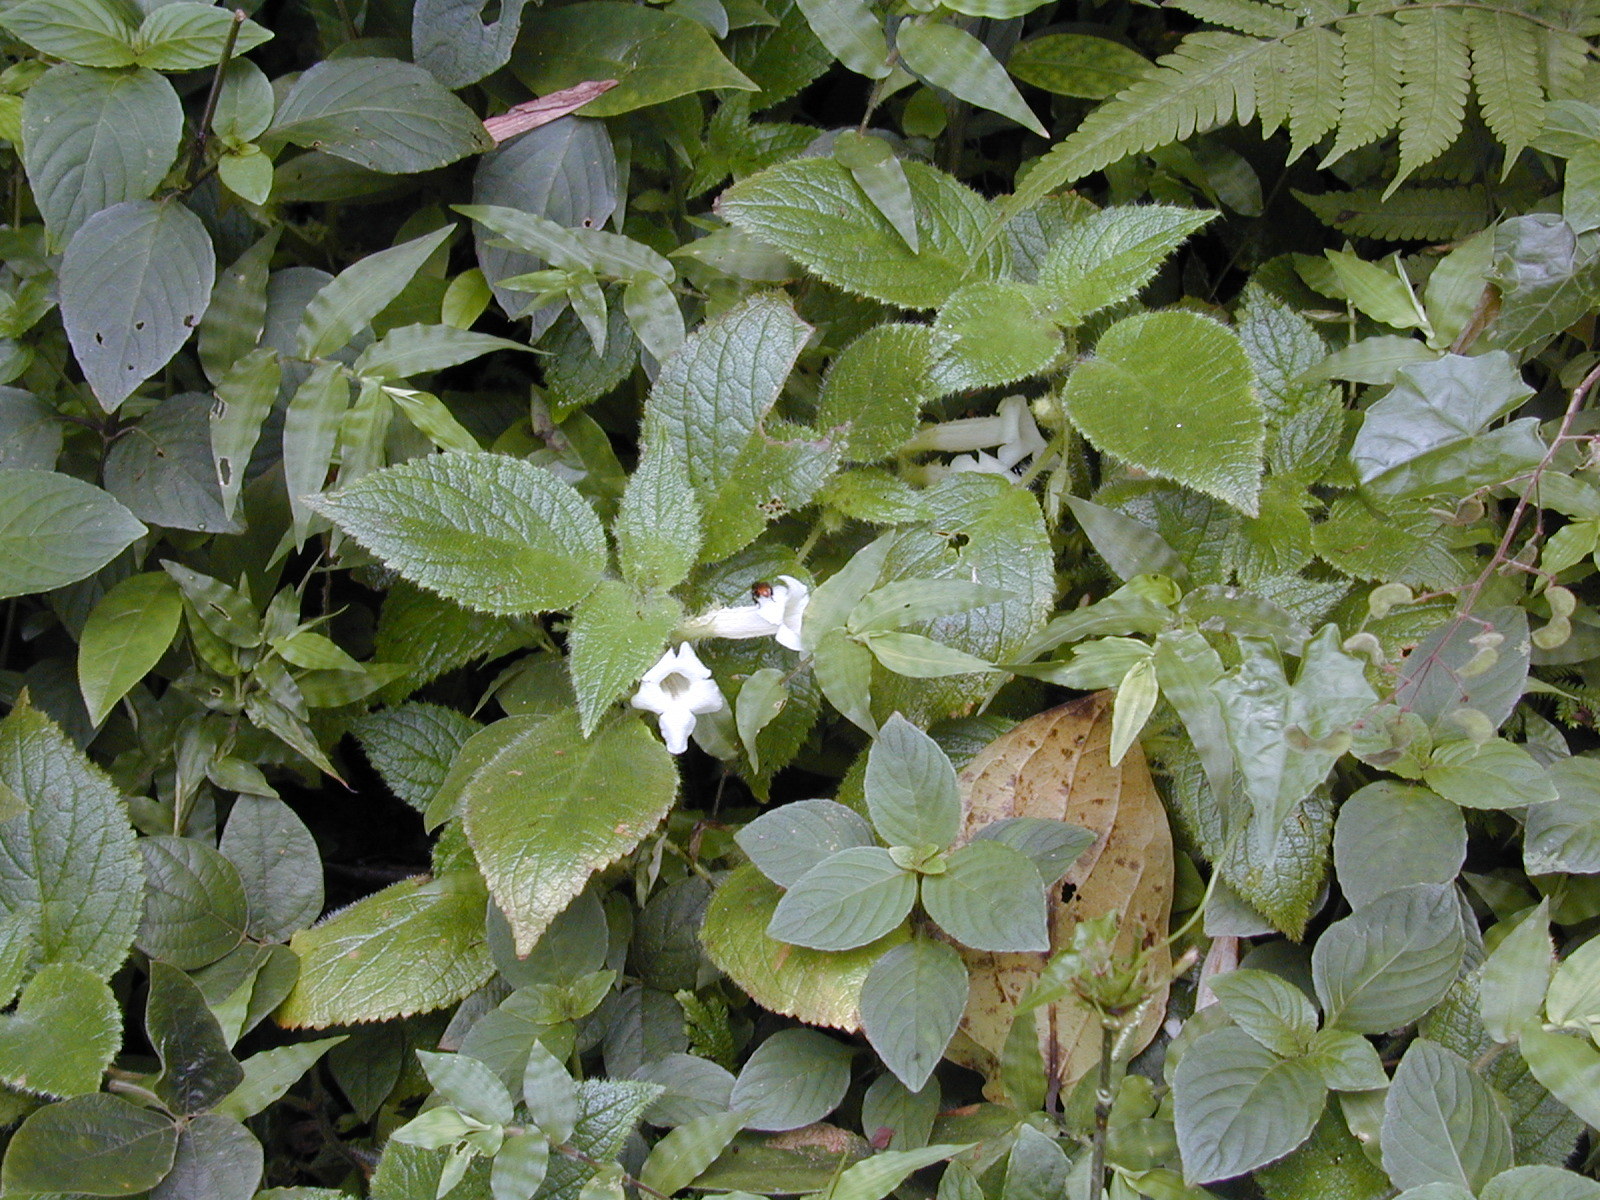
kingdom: Plantae
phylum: Tracheophyta
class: Magnoliopsida
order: Lamiales
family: Gesneriaceae
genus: Chrysothemis
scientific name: Chrysothemis panamensis
